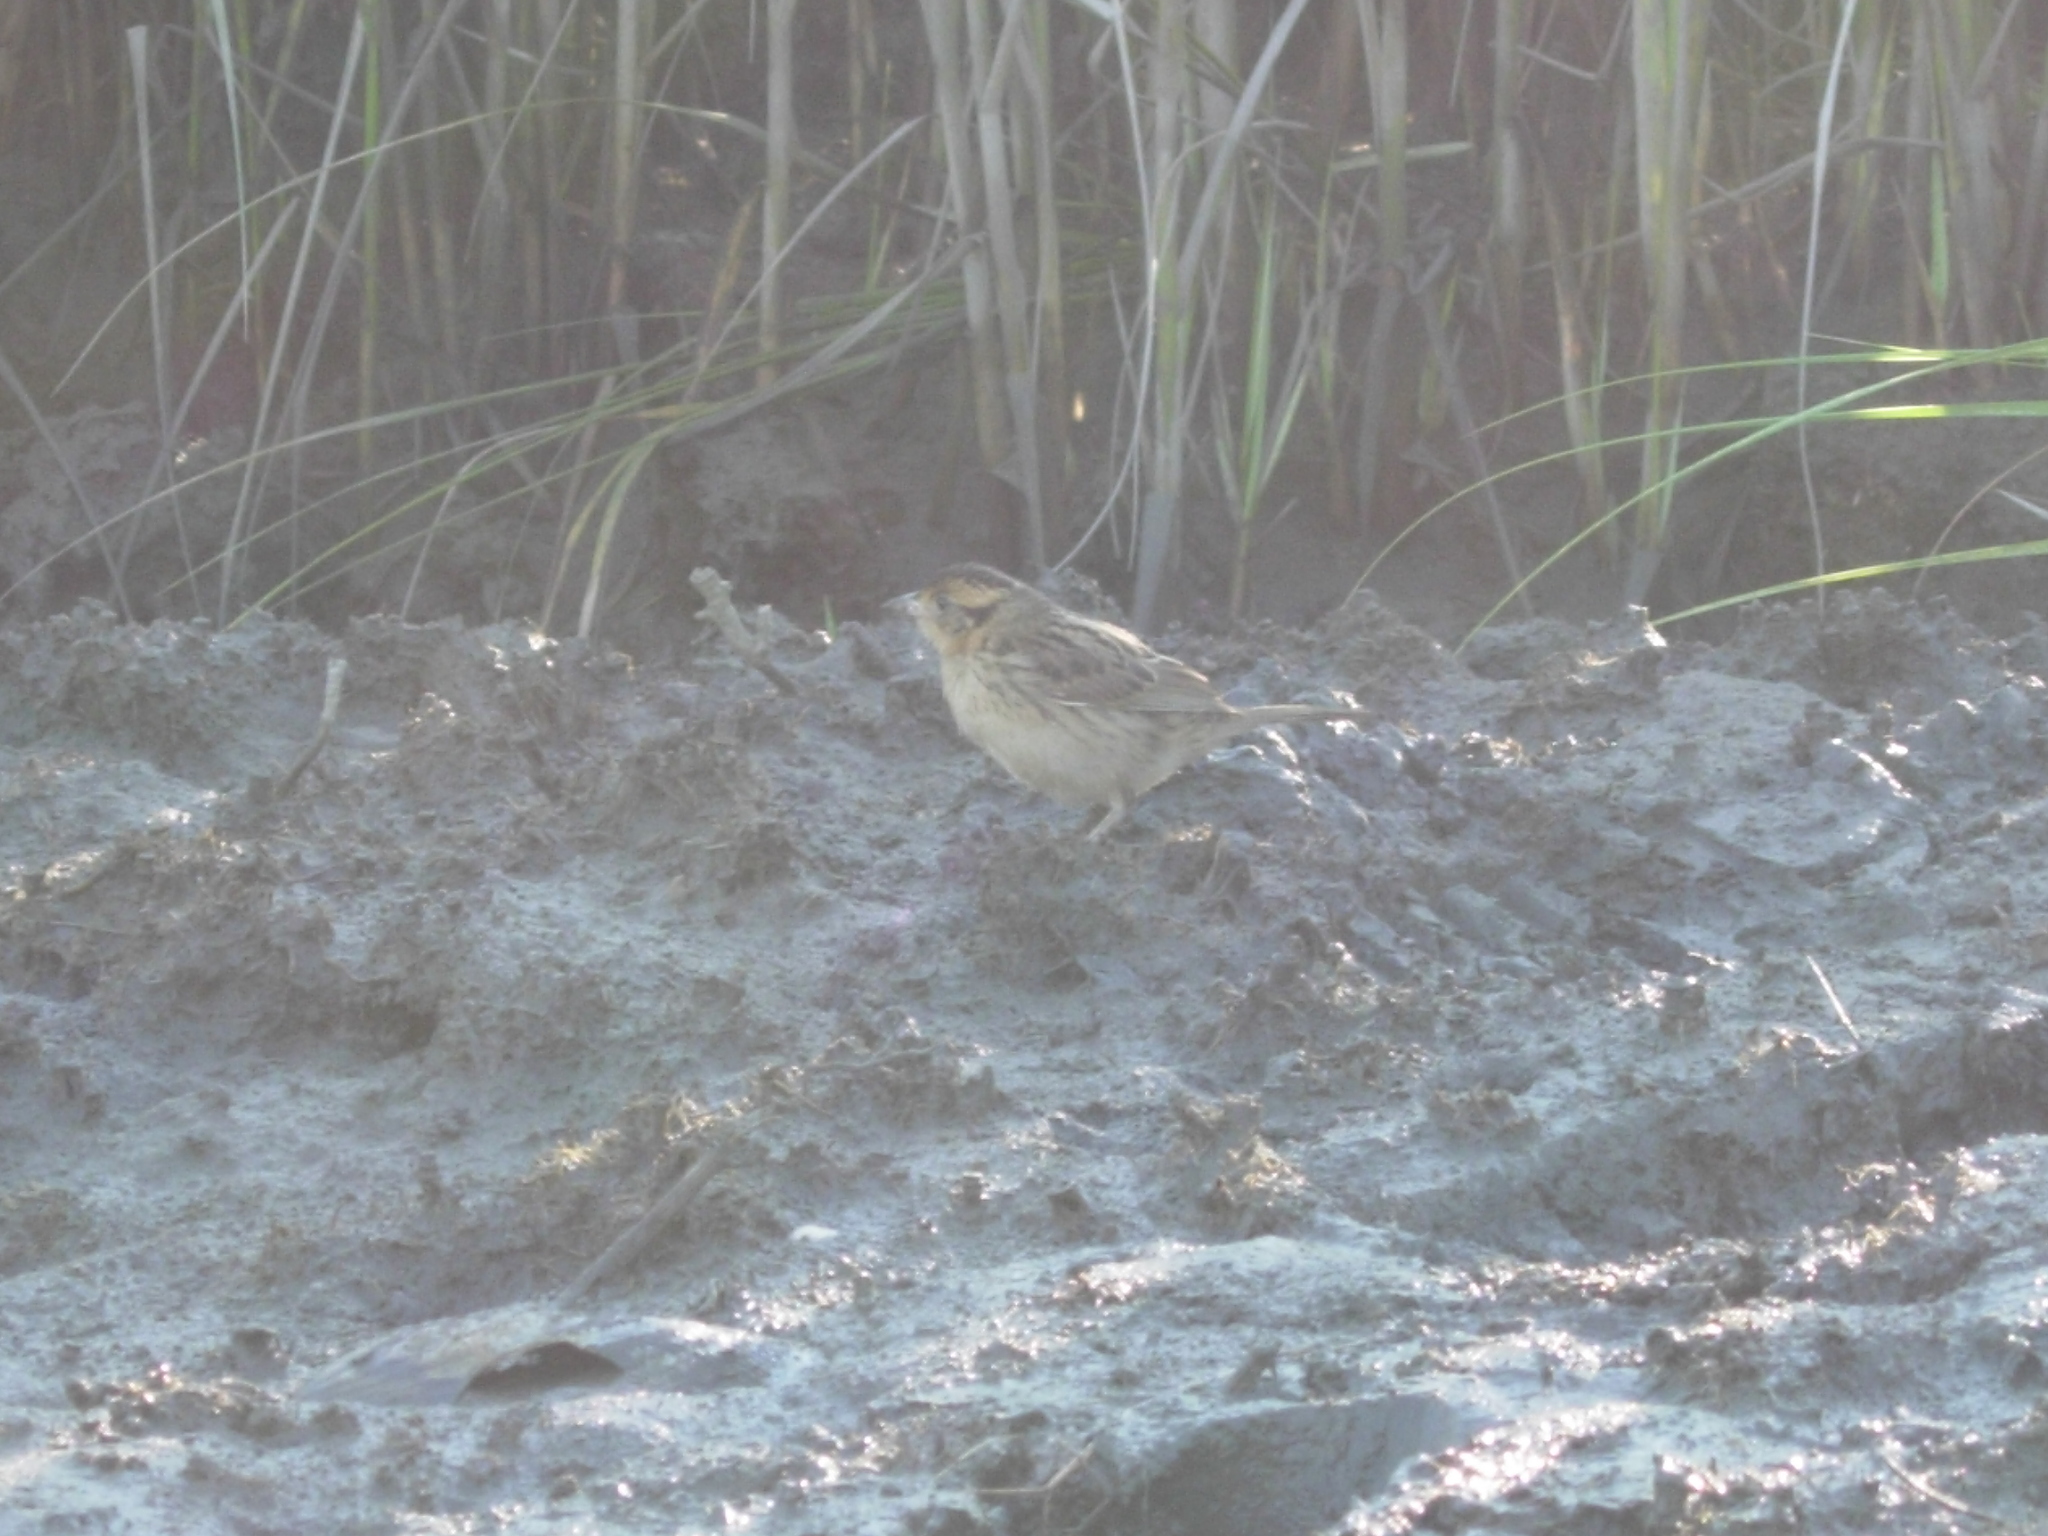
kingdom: Animalia
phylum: Chordata
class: Aves
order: Passeriformes
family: Passerellidae
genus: Ammospiza
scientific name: Ammospiza caudacuta
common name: Saltmarsh sparrow
